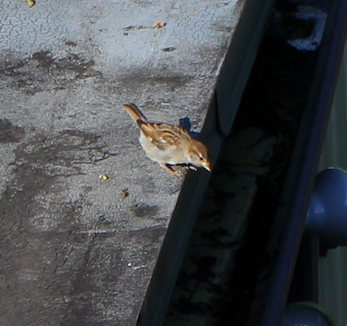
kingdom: Animalia
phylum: Chordata
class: Aves
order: Passeriformes
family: Passeridae
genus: Passer
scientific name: Passer domesticus
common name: House sparrow
